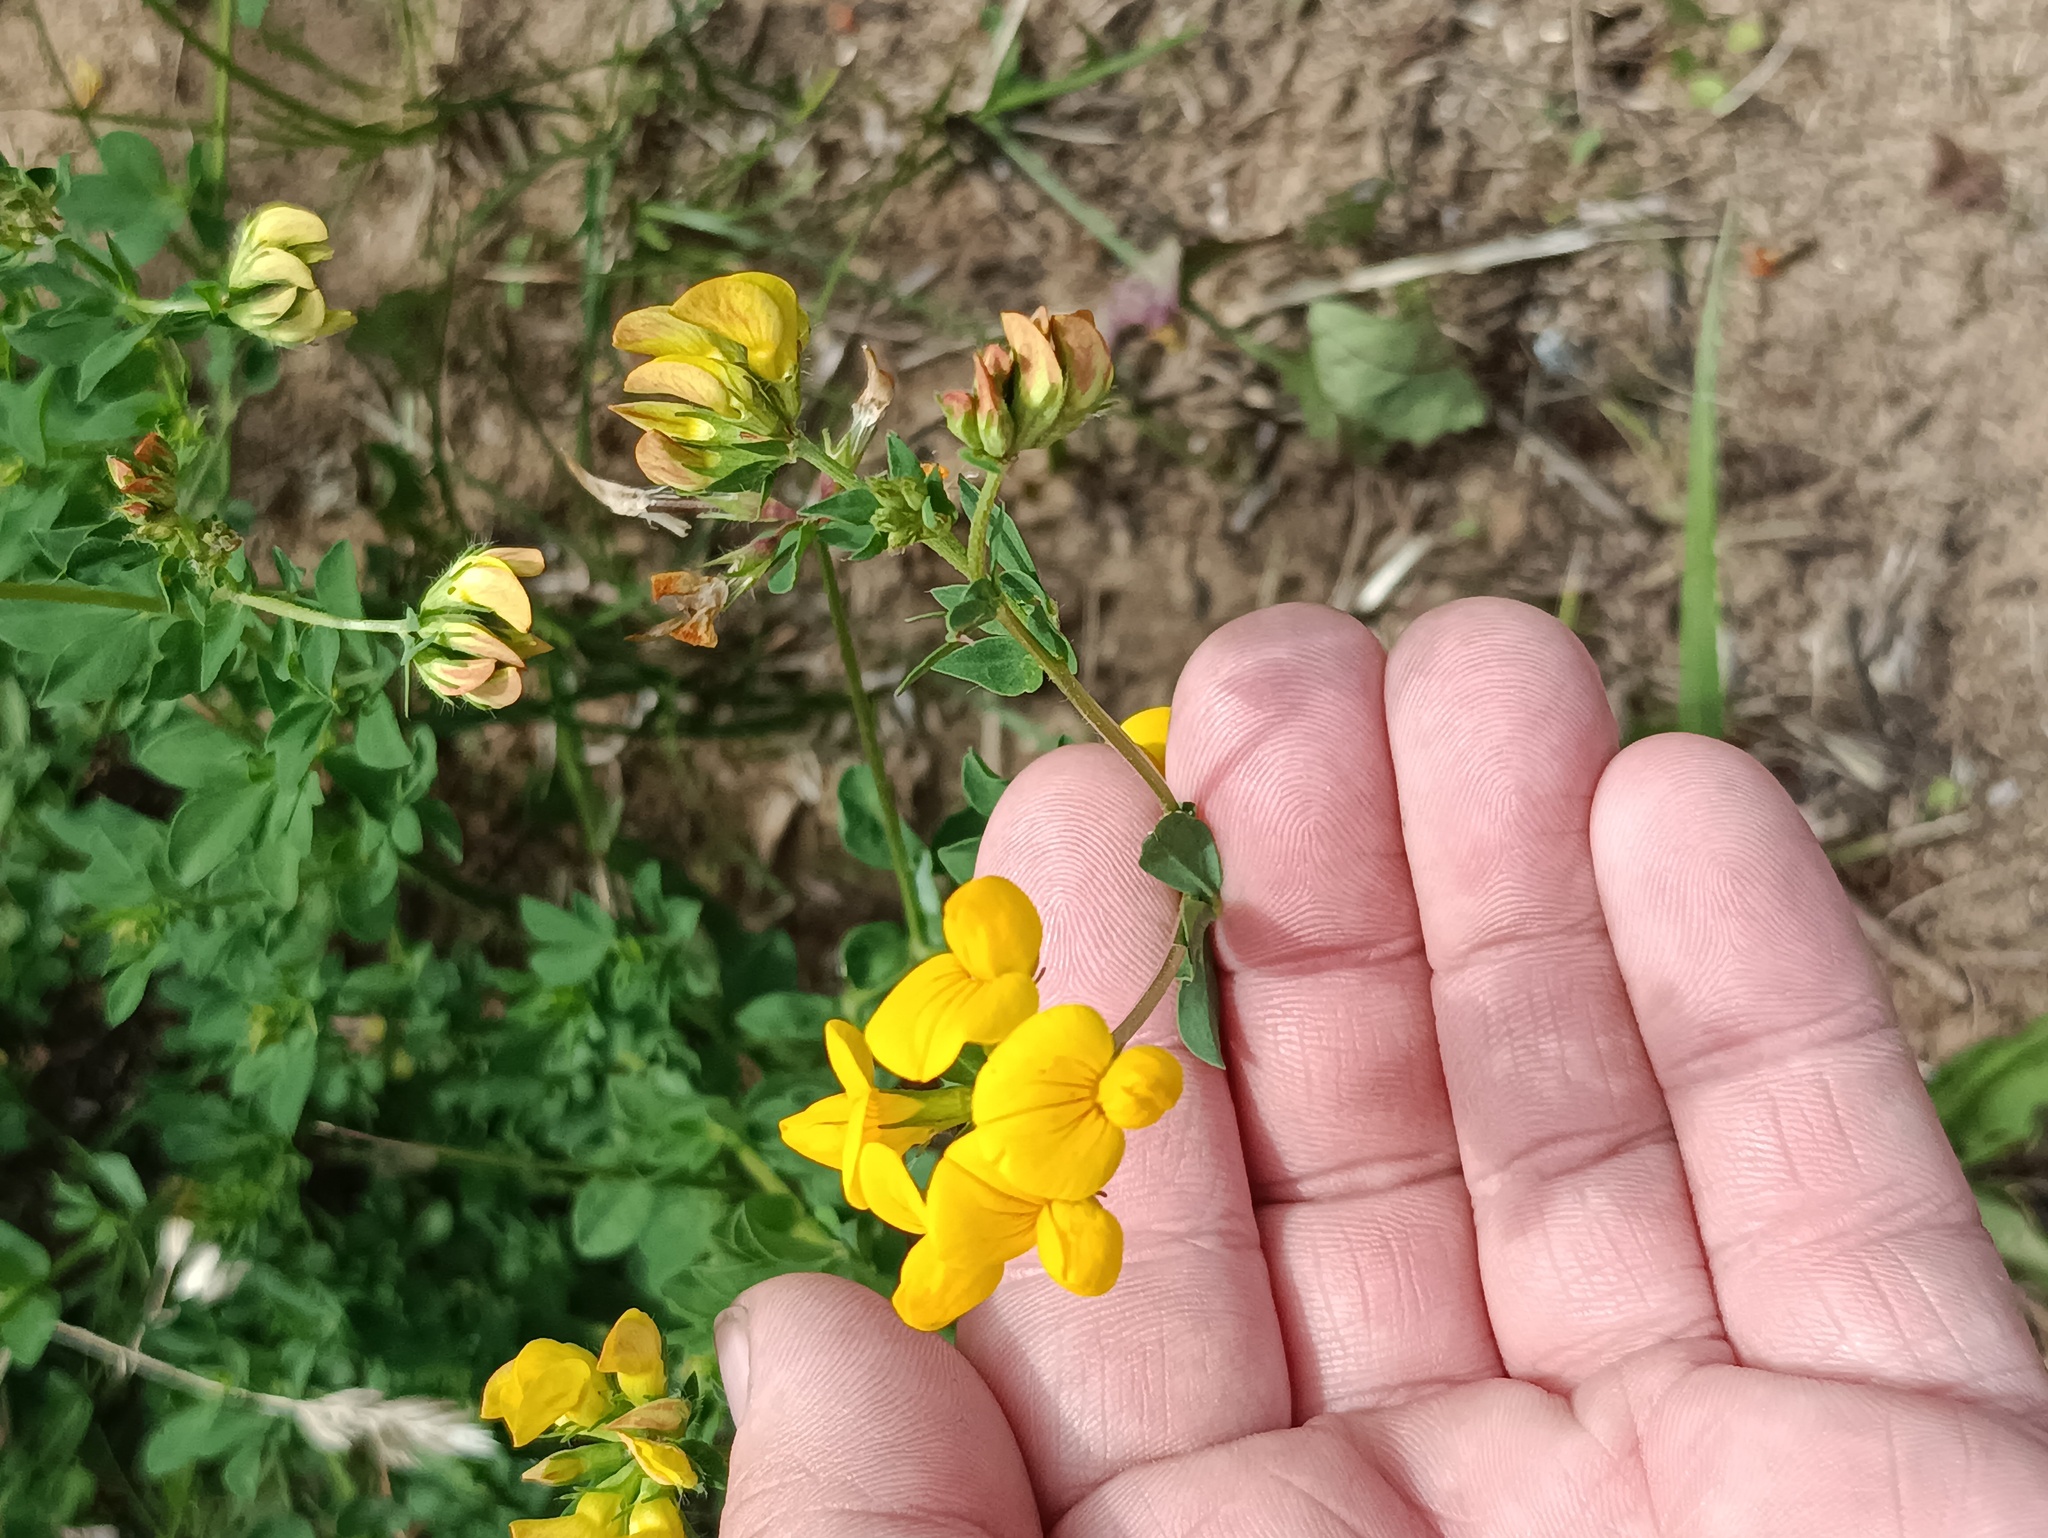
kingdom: Plantae
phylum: Tracheophyta
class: Magnoliopsida
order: Fabales
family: Fabaceae
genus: Lotus
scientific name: Lotus corniculatus
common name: Common bird's-foot-trefoil
